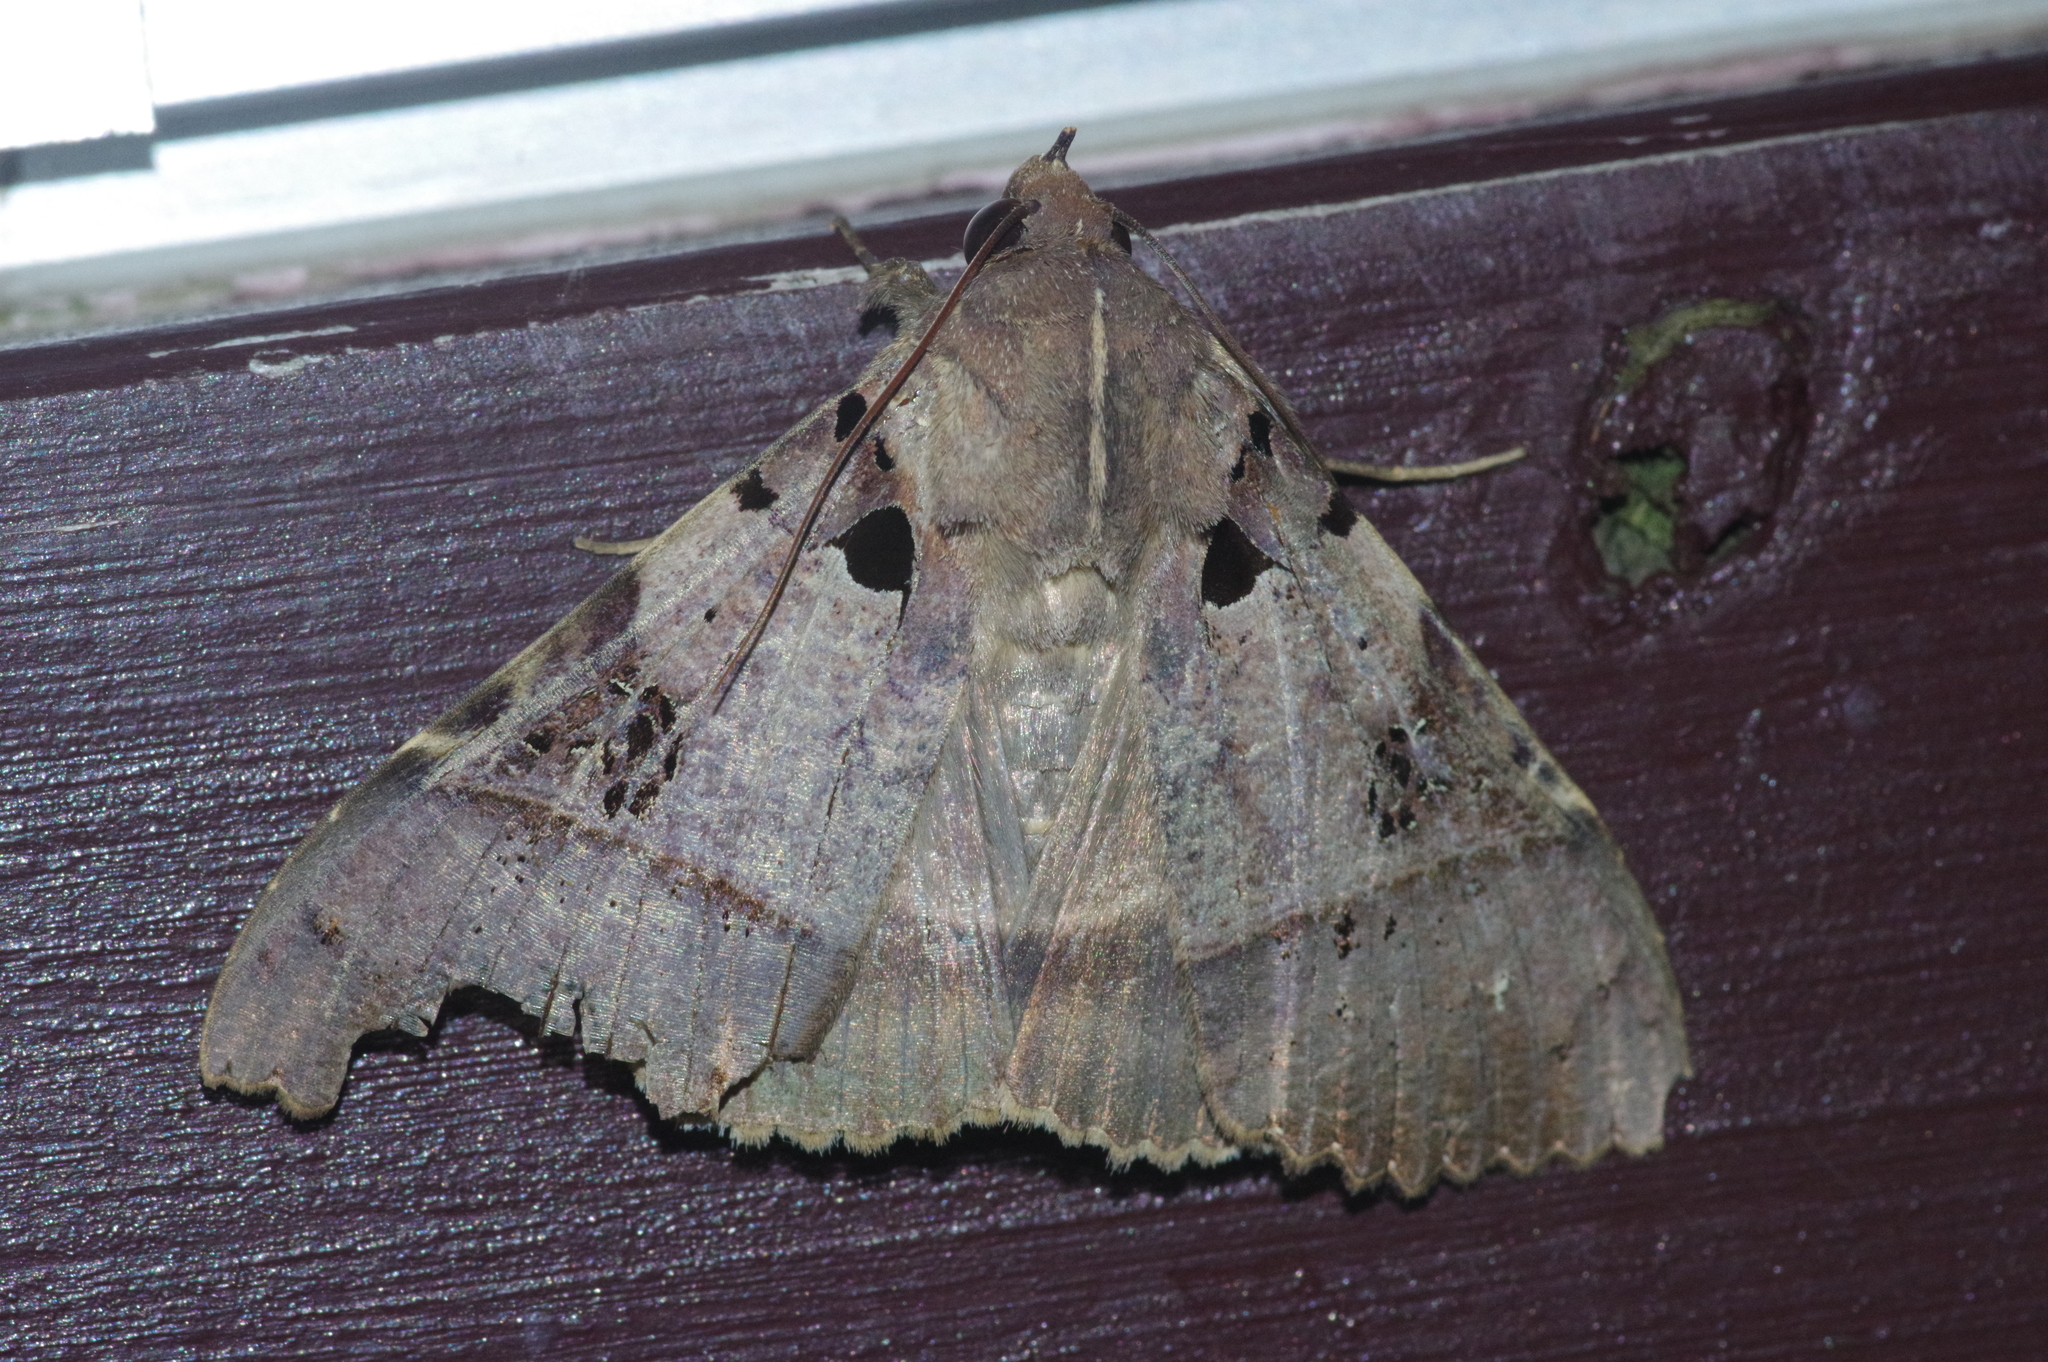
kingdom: Animalia
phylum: Arthropoda
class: Insecta
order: Lepidoptera
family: Erebidae
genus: Serrodes
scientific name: Serrodes campana
